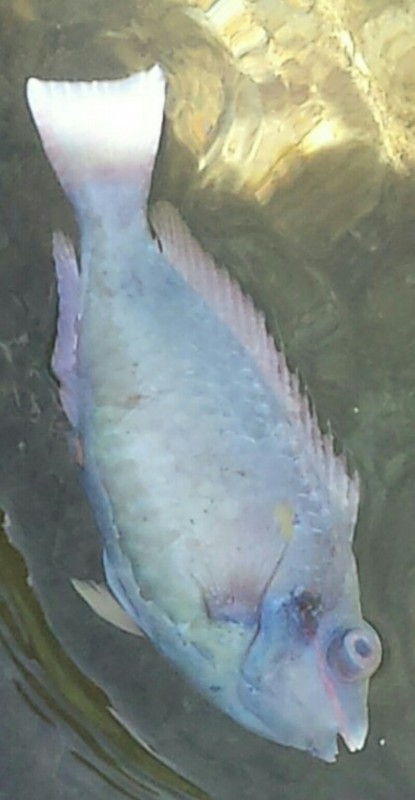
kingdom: Animalia
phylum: Chordata
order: Perciformes
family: Scaridae
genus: Sparisoma
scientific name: Sparisoma aurofrenatum
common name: Redband parrotfish
